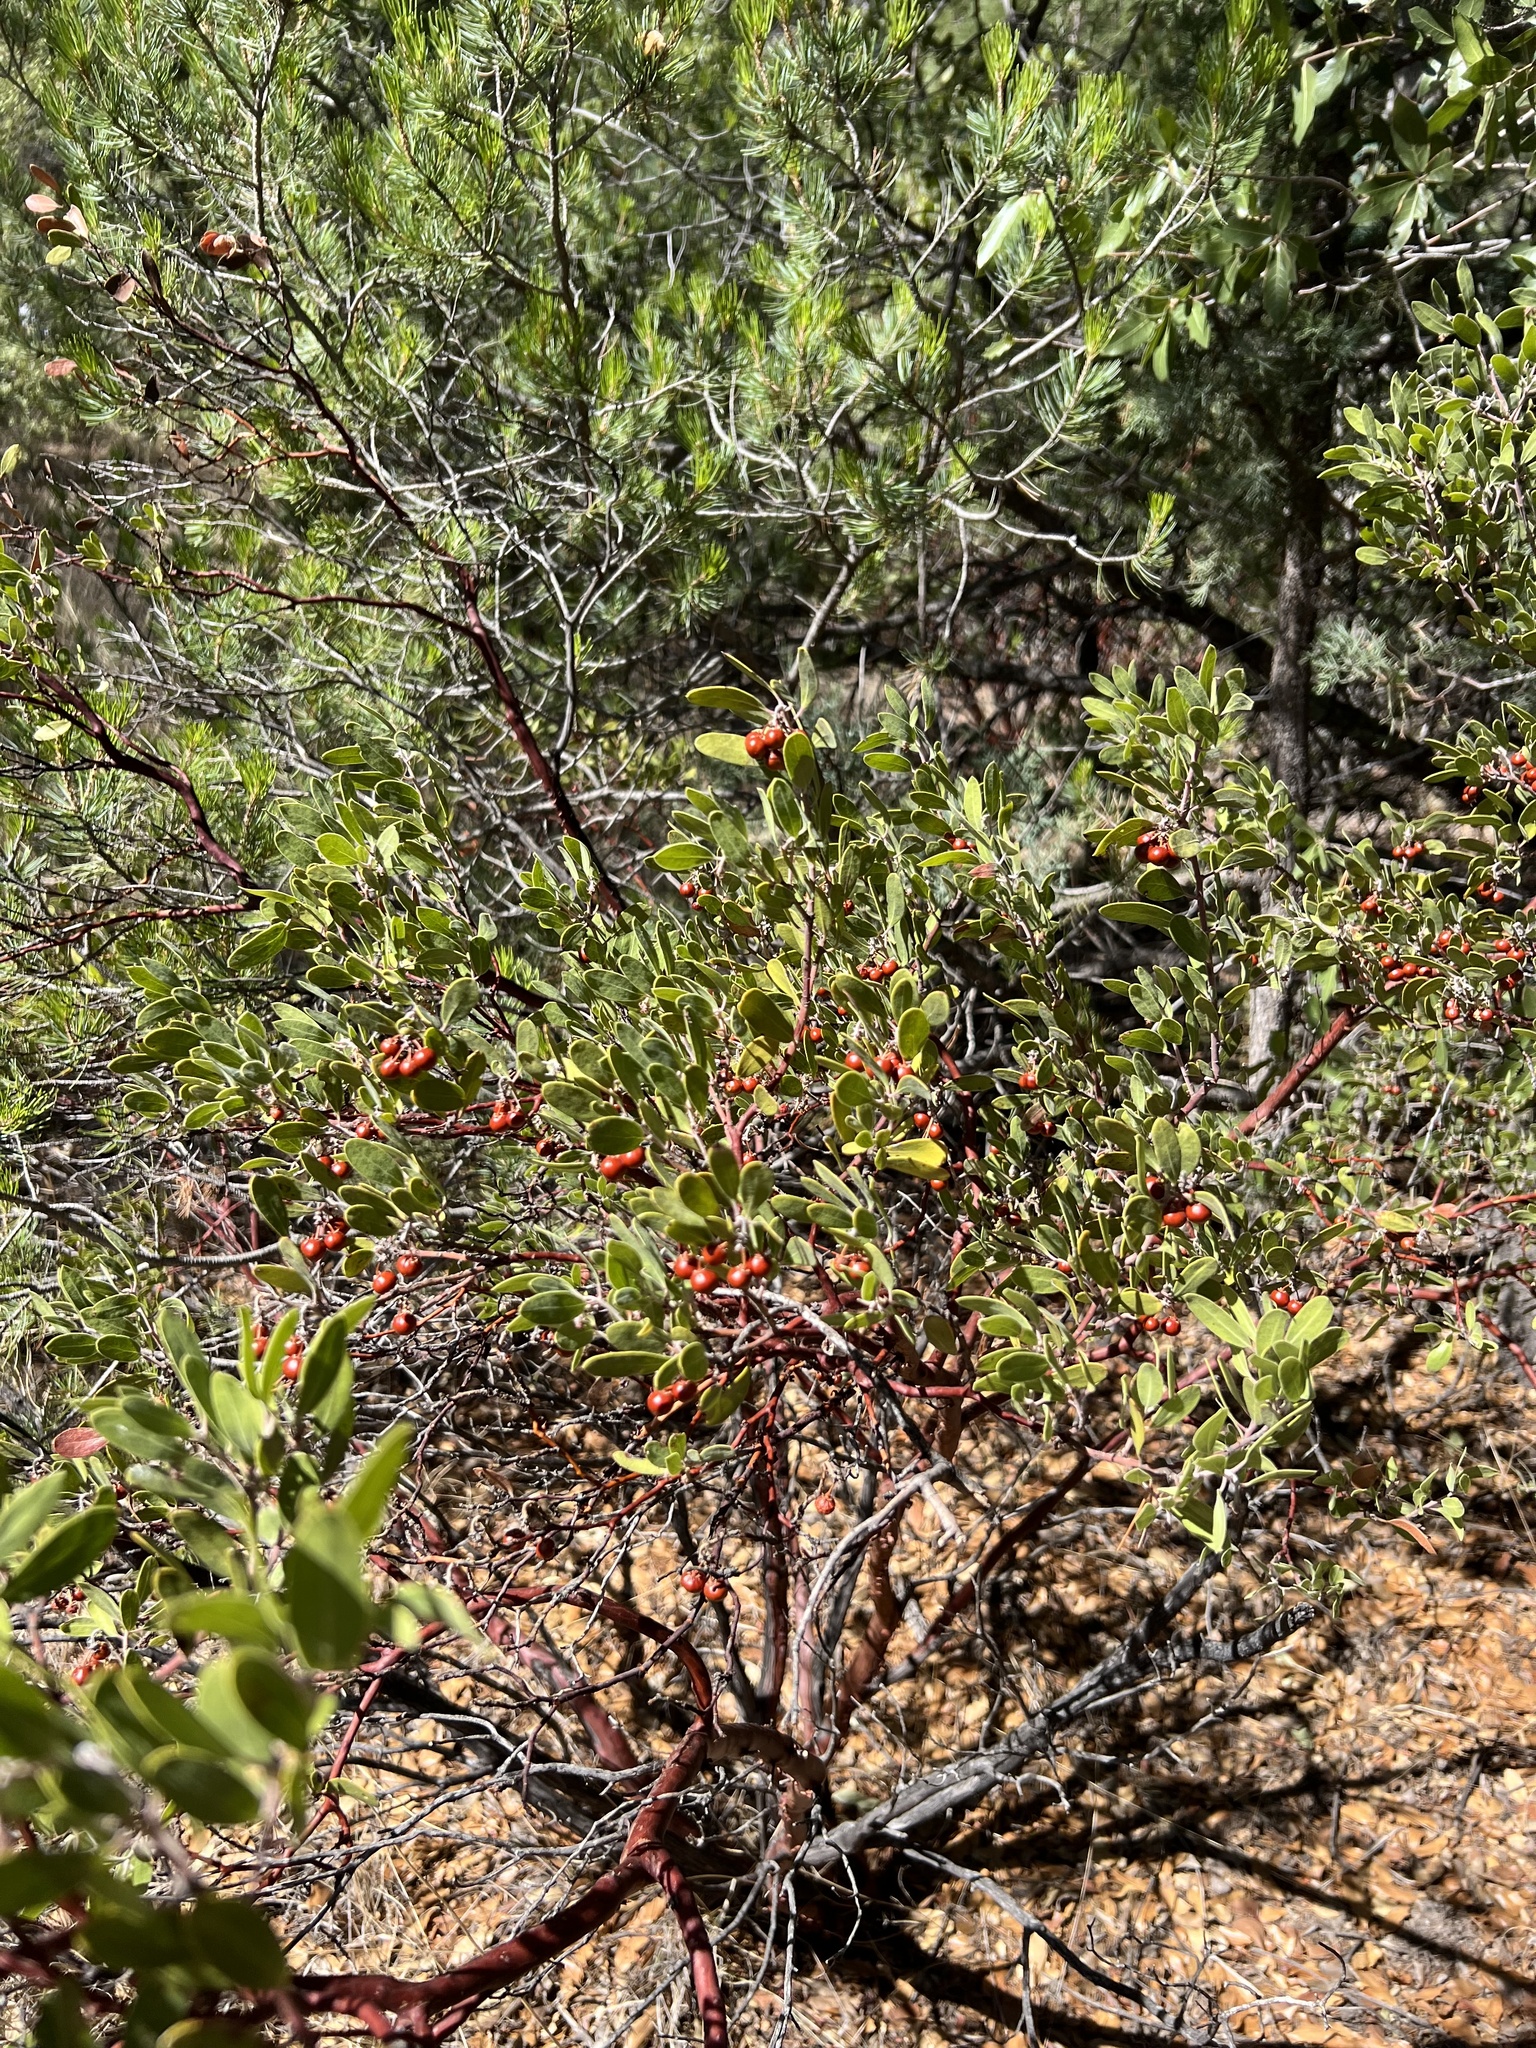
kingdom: Plantae
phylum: Tracheophyta
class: Magnoliopsida
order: Ericales
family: Ericaceae
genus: Arctostaphylos
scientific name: Arctostaphylos pungens
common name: Mexican manzanita
